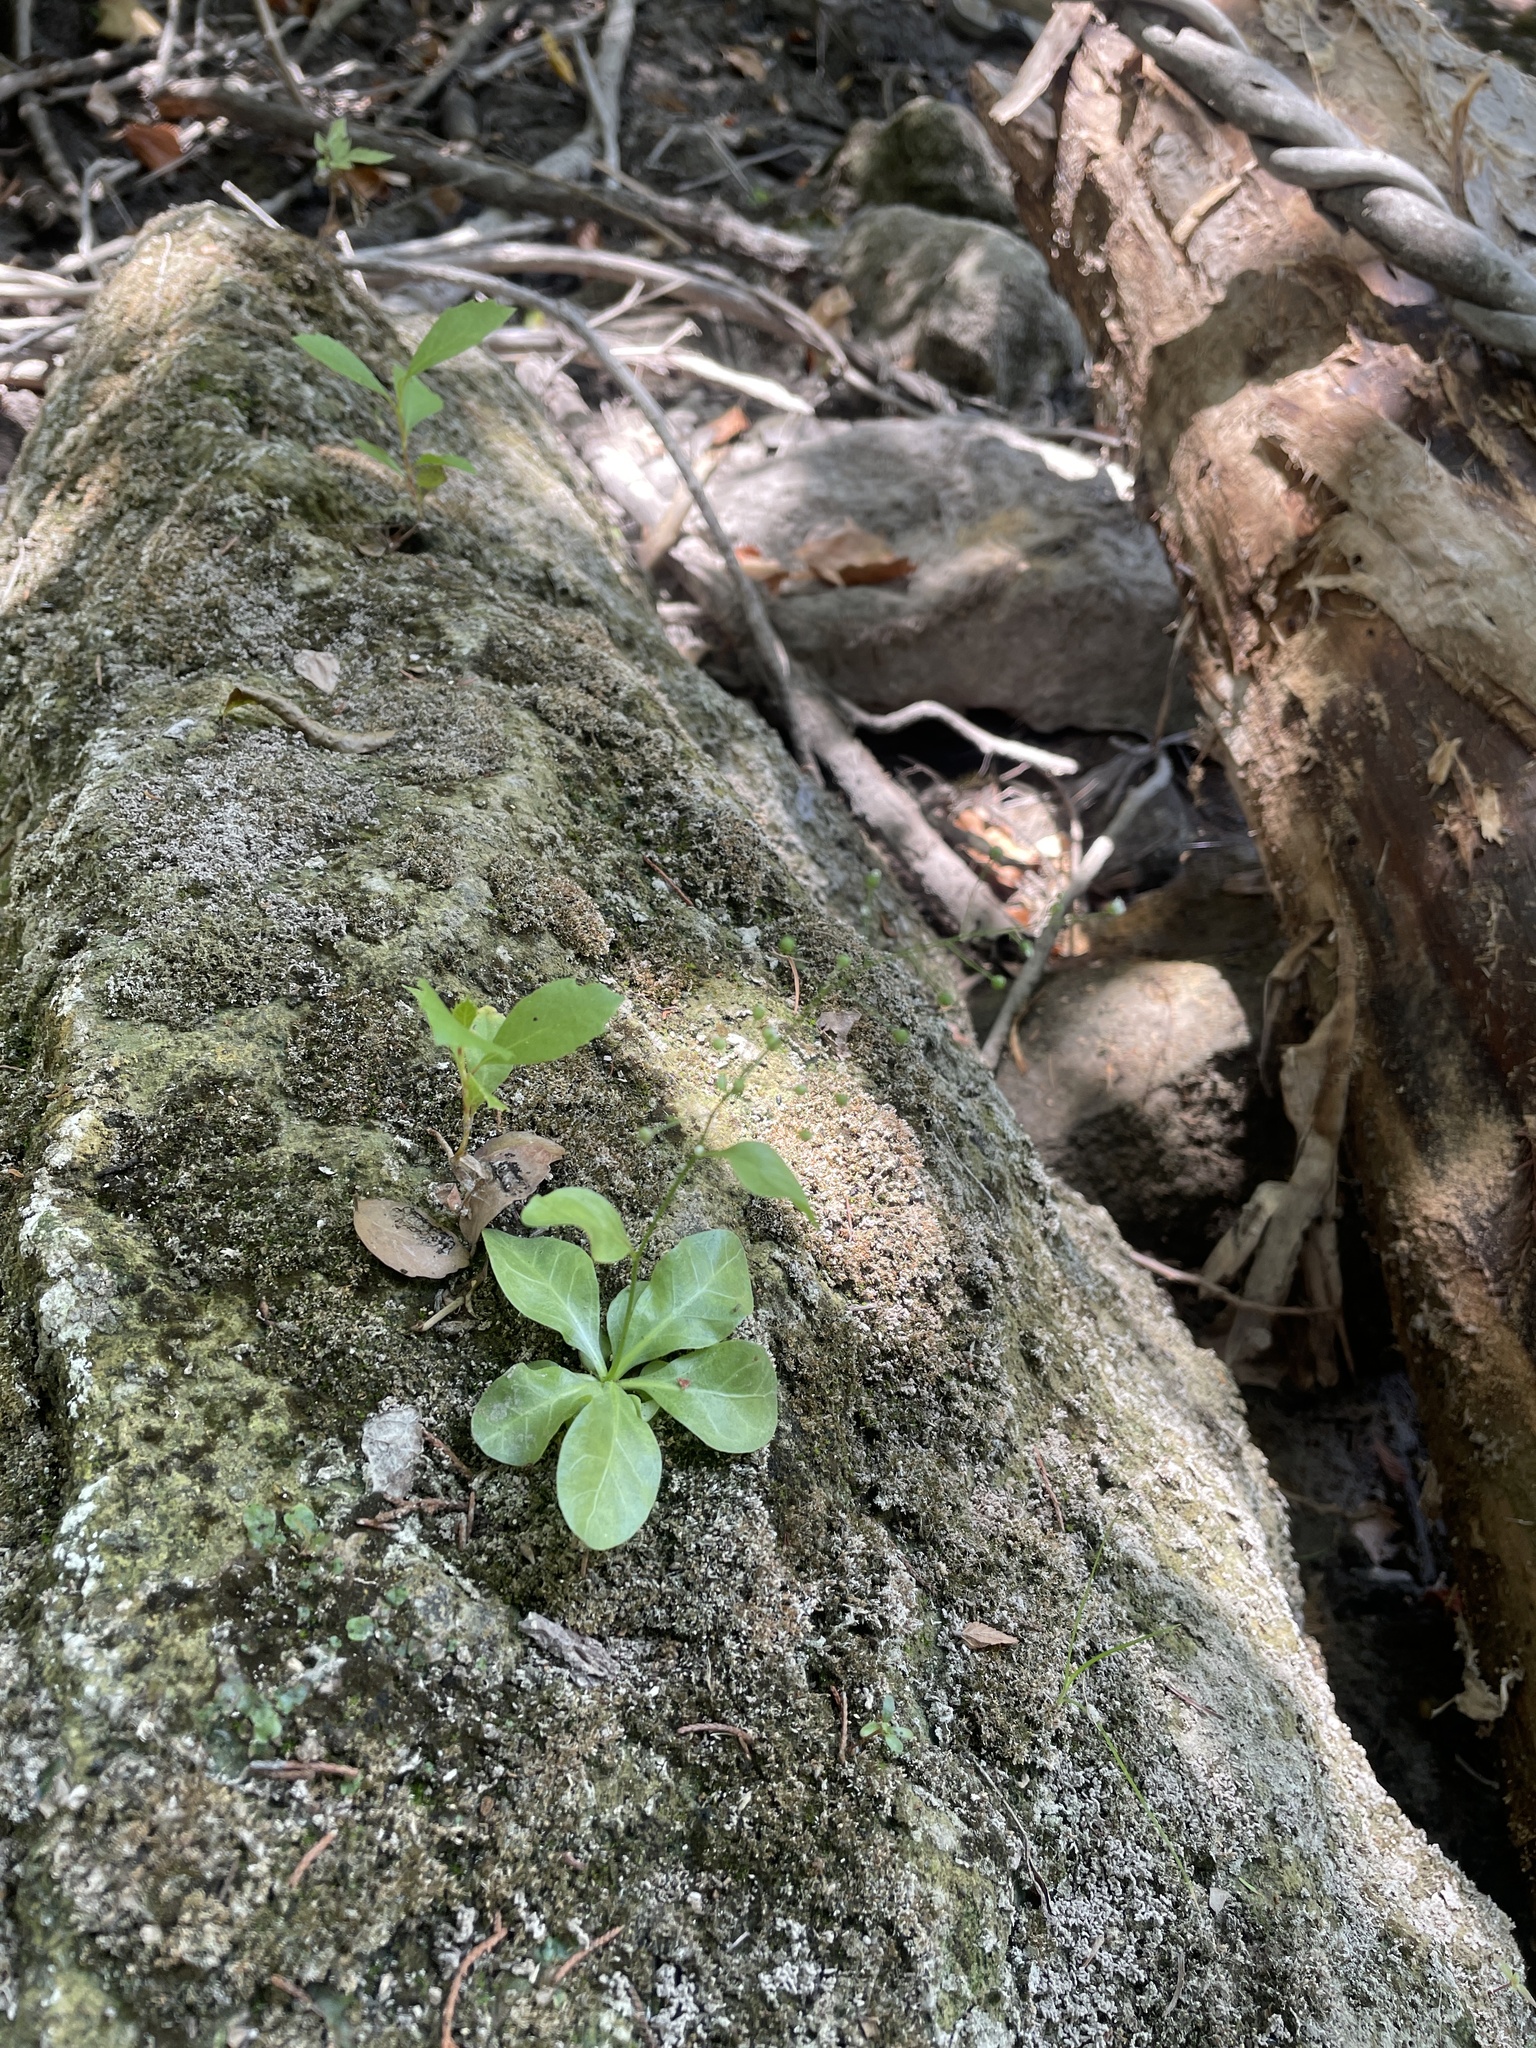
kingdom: Plantae
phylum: Tracheophyta
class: Magnoliopsida
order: Ericales
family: Primulaceae
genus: Samolus
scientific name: Samolus parviflorus
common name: False water pimpernel
